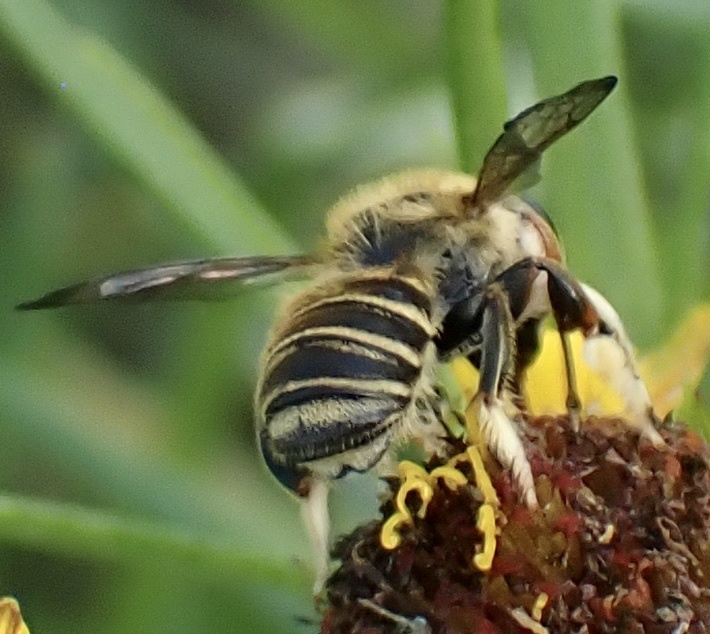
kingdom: Animalia
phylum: Arthropoda
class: Insecta
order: Hymenoptera
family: Megachilidae
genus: Megachile
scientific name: Megachile albitarsis
